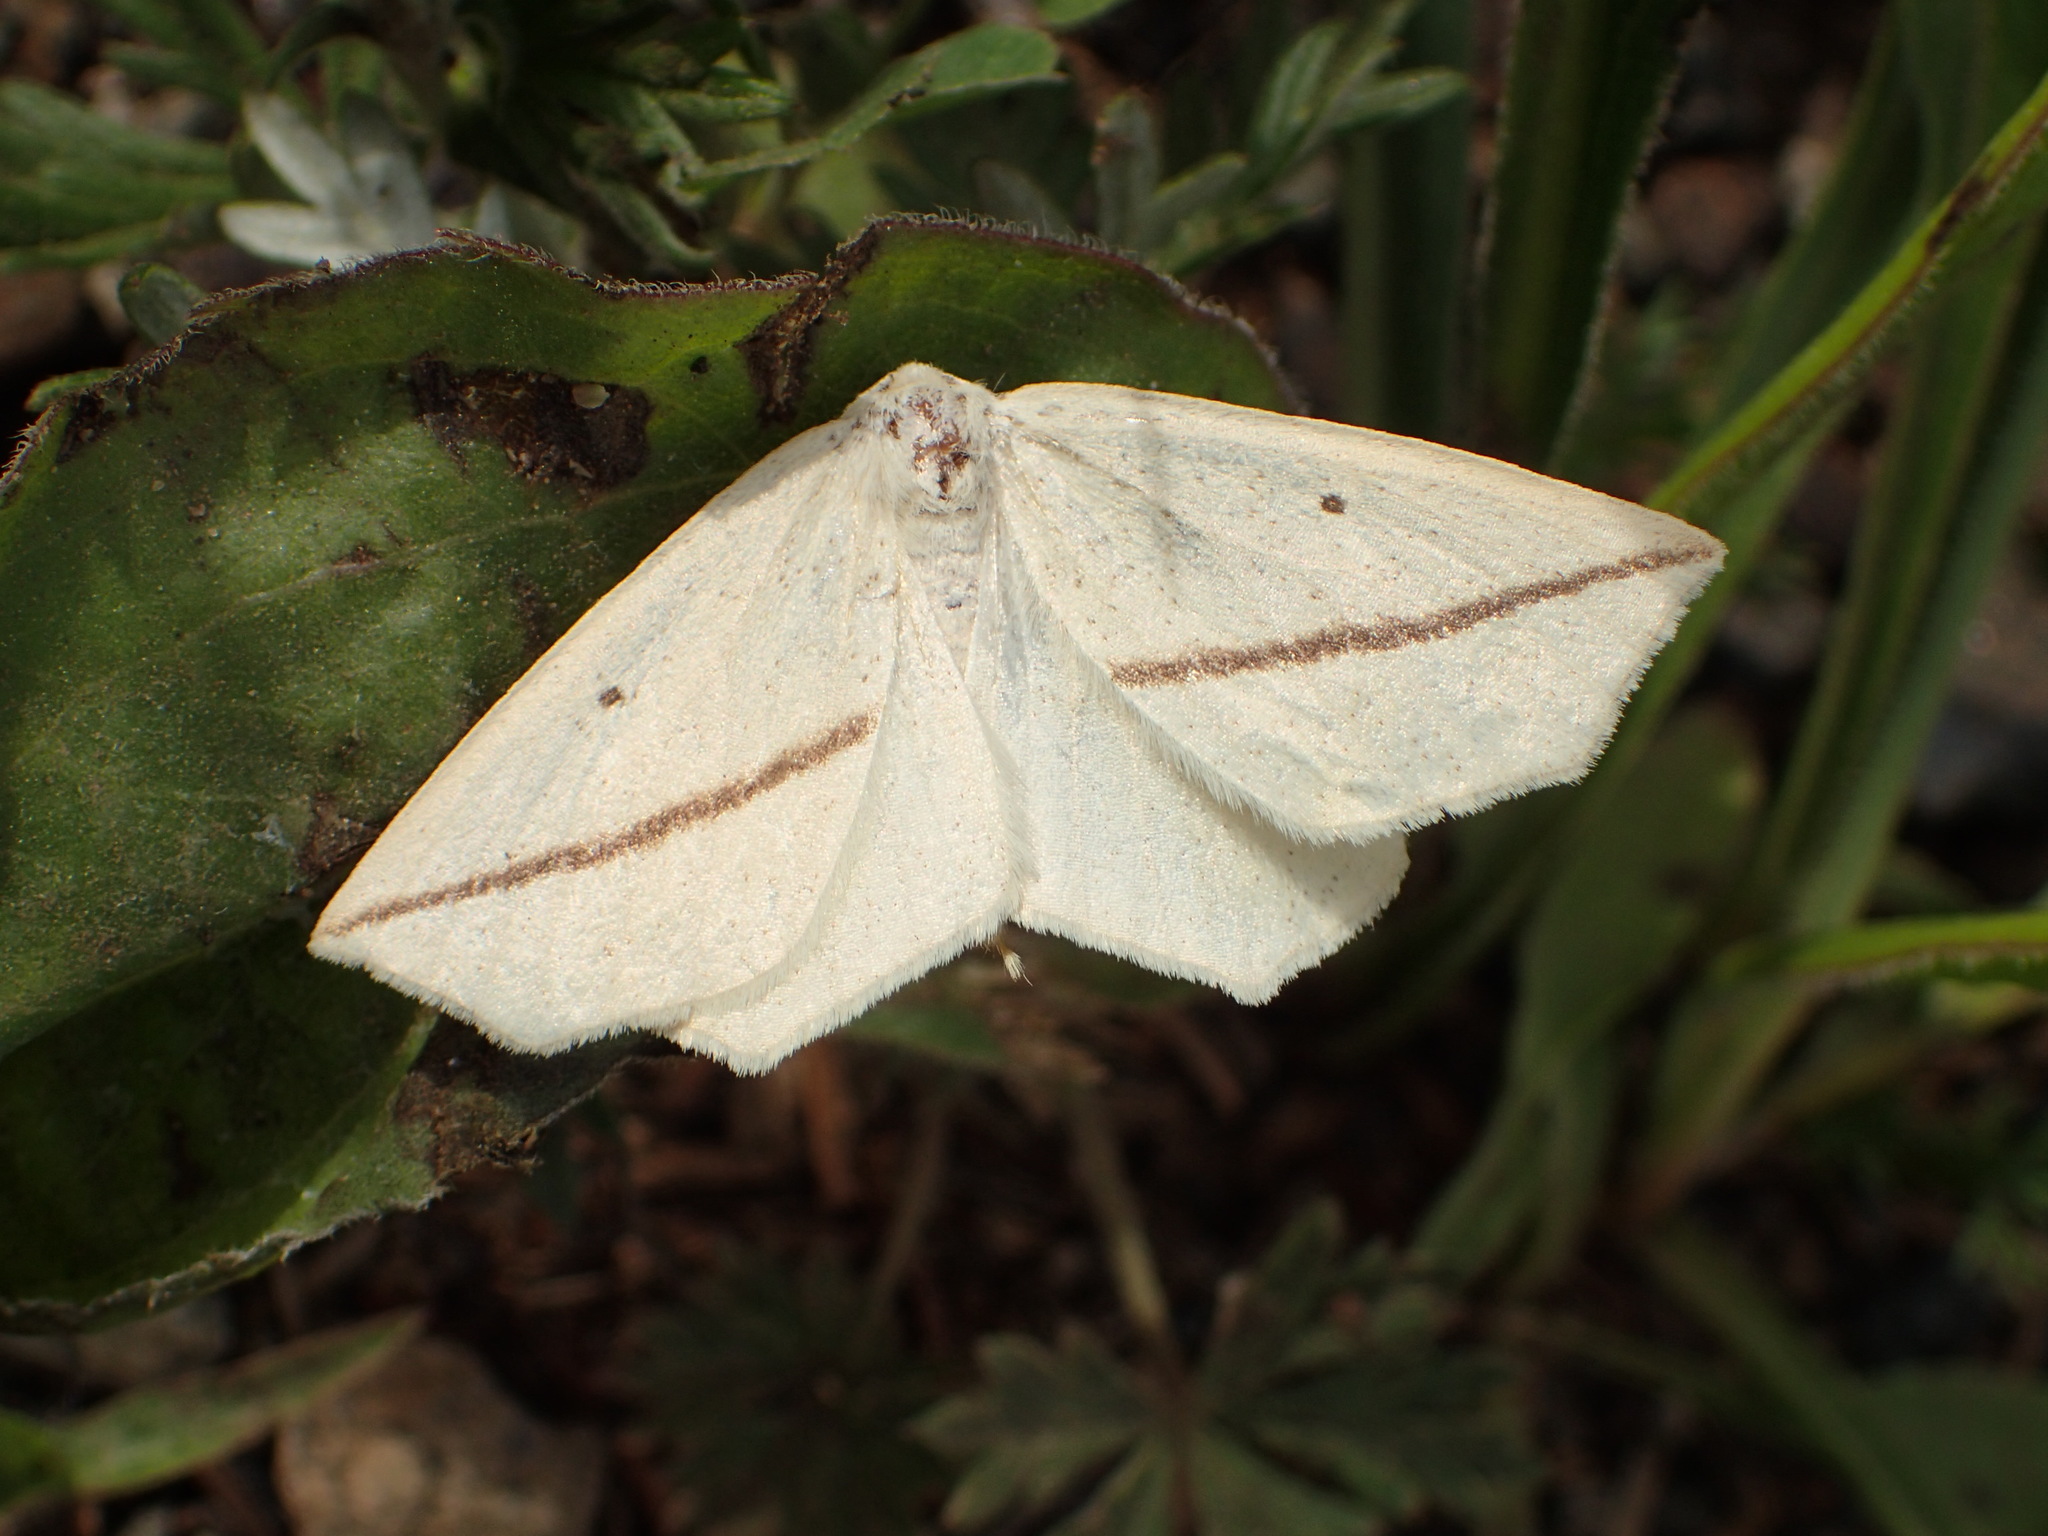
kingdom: Animalia
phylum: Arthropoda
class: Insecta
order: Lepidoptera
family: Geometridae
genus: Tetracis
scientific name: Tetracis crocallata
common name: Yellow slant-line
